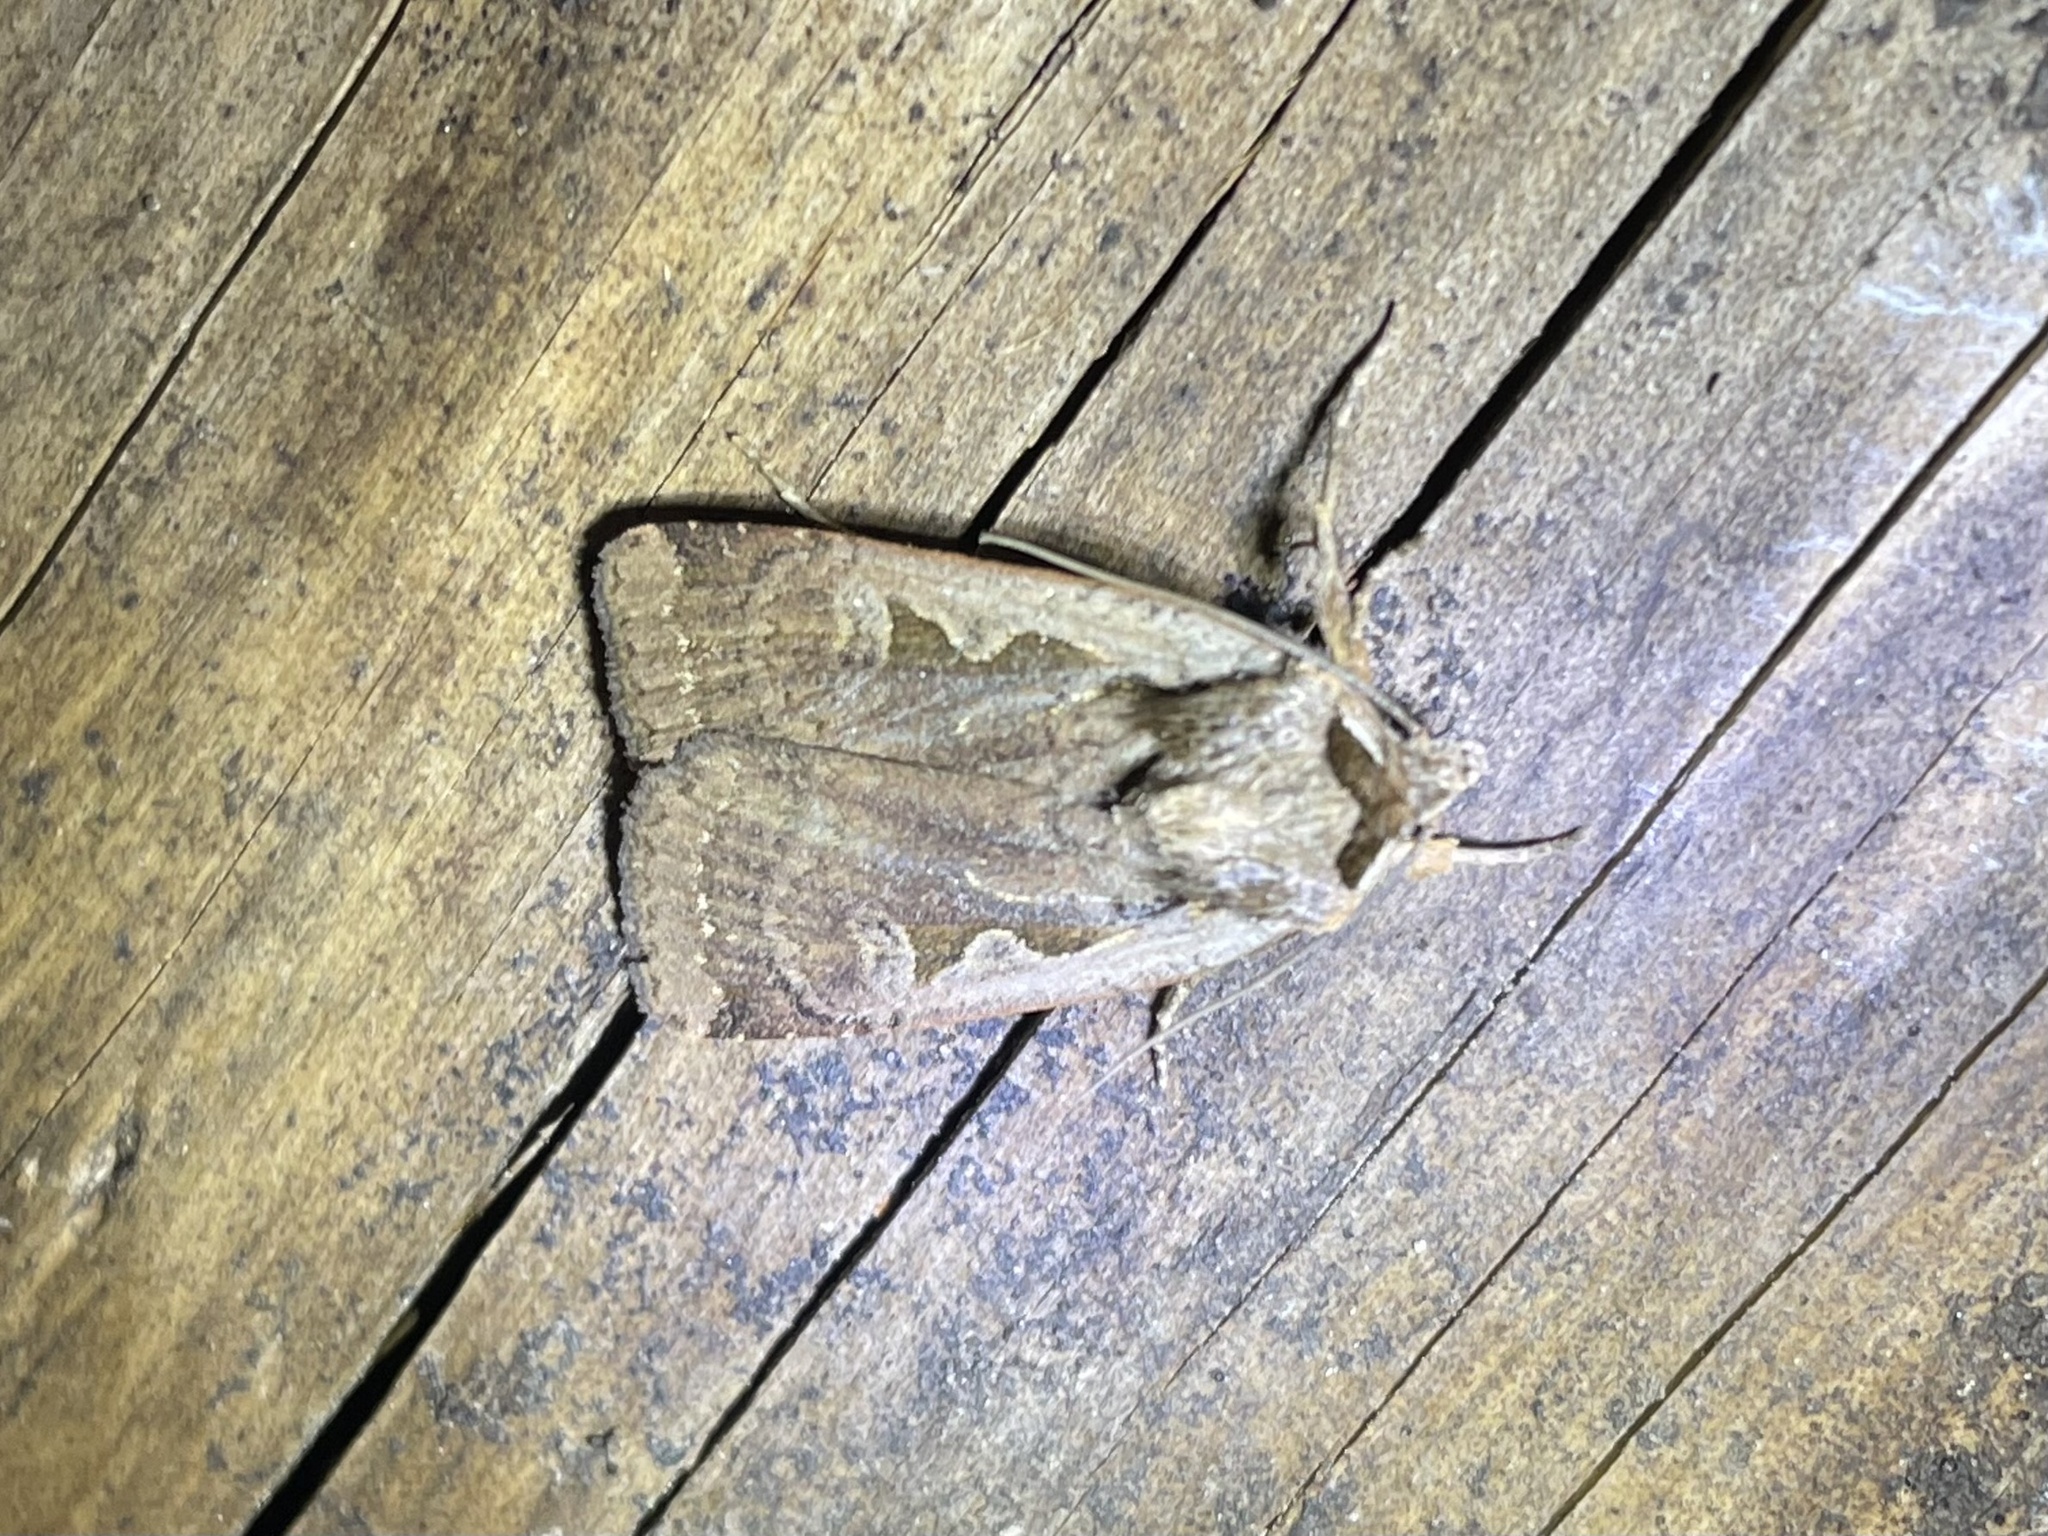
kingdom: Animalia
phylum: Arthropoda
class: Insecta
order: Lepidoptera
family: Noctuidae
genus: Parabagrotis
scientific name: Parabagrotis formalis
